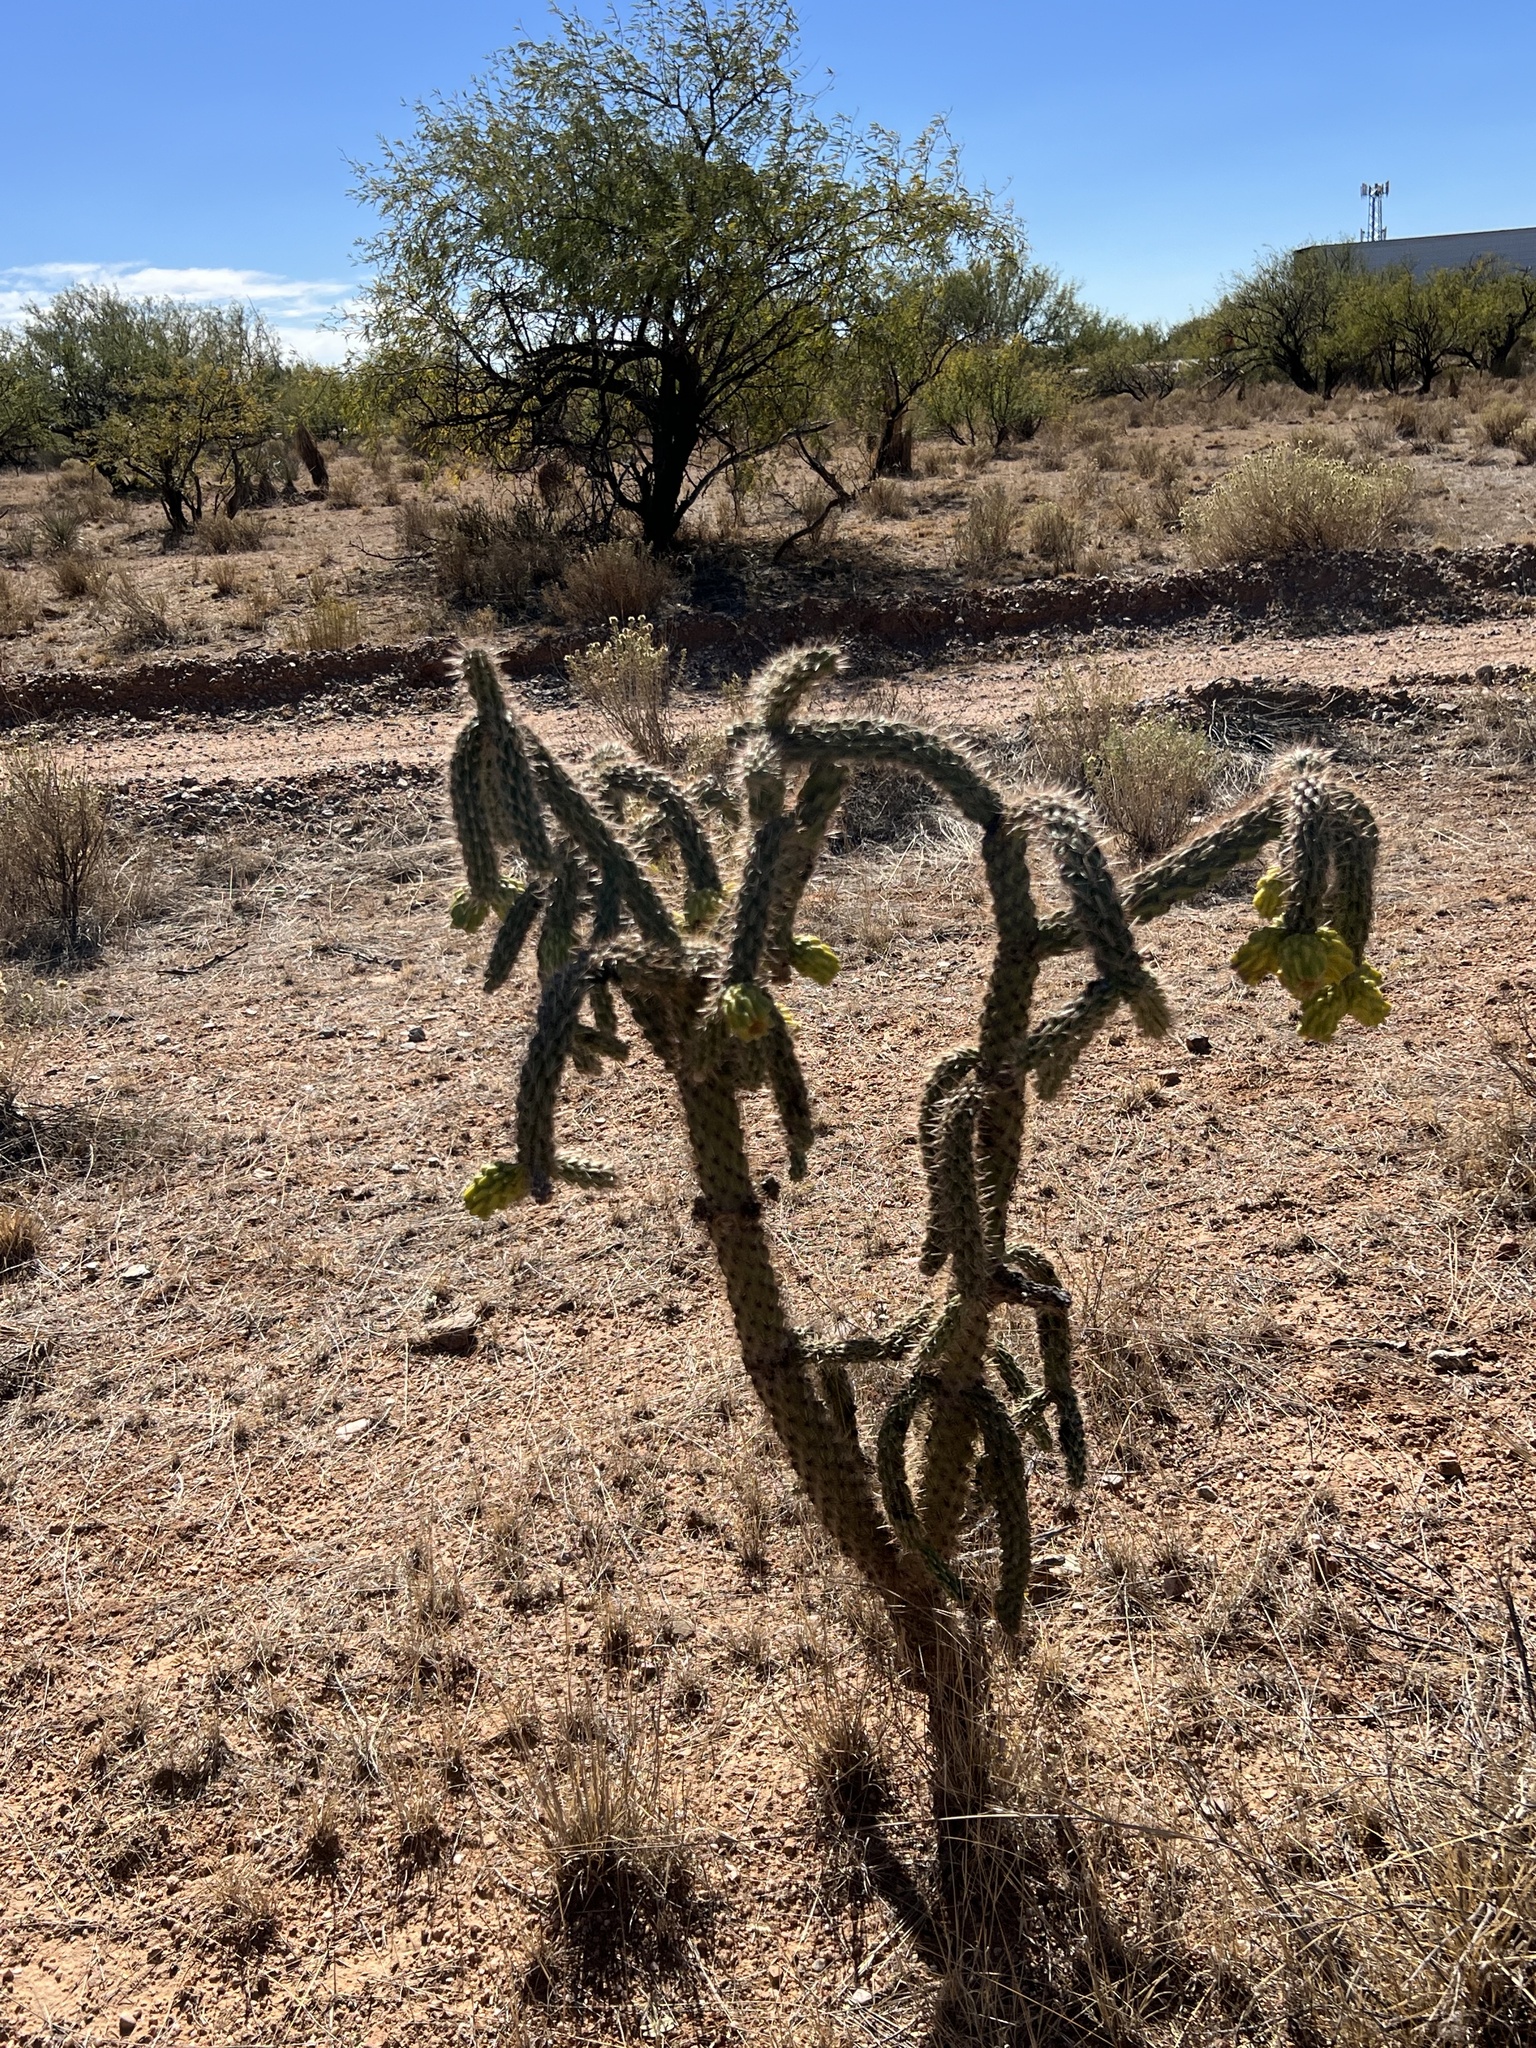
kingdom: Plantae
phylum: Tracheophyta
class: Magnoliopsida
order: Caryophyllales
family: Cactaceae
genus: Cylindropuntia
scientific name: Cylindropuntia imbricata
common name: Candelabrum cactus
